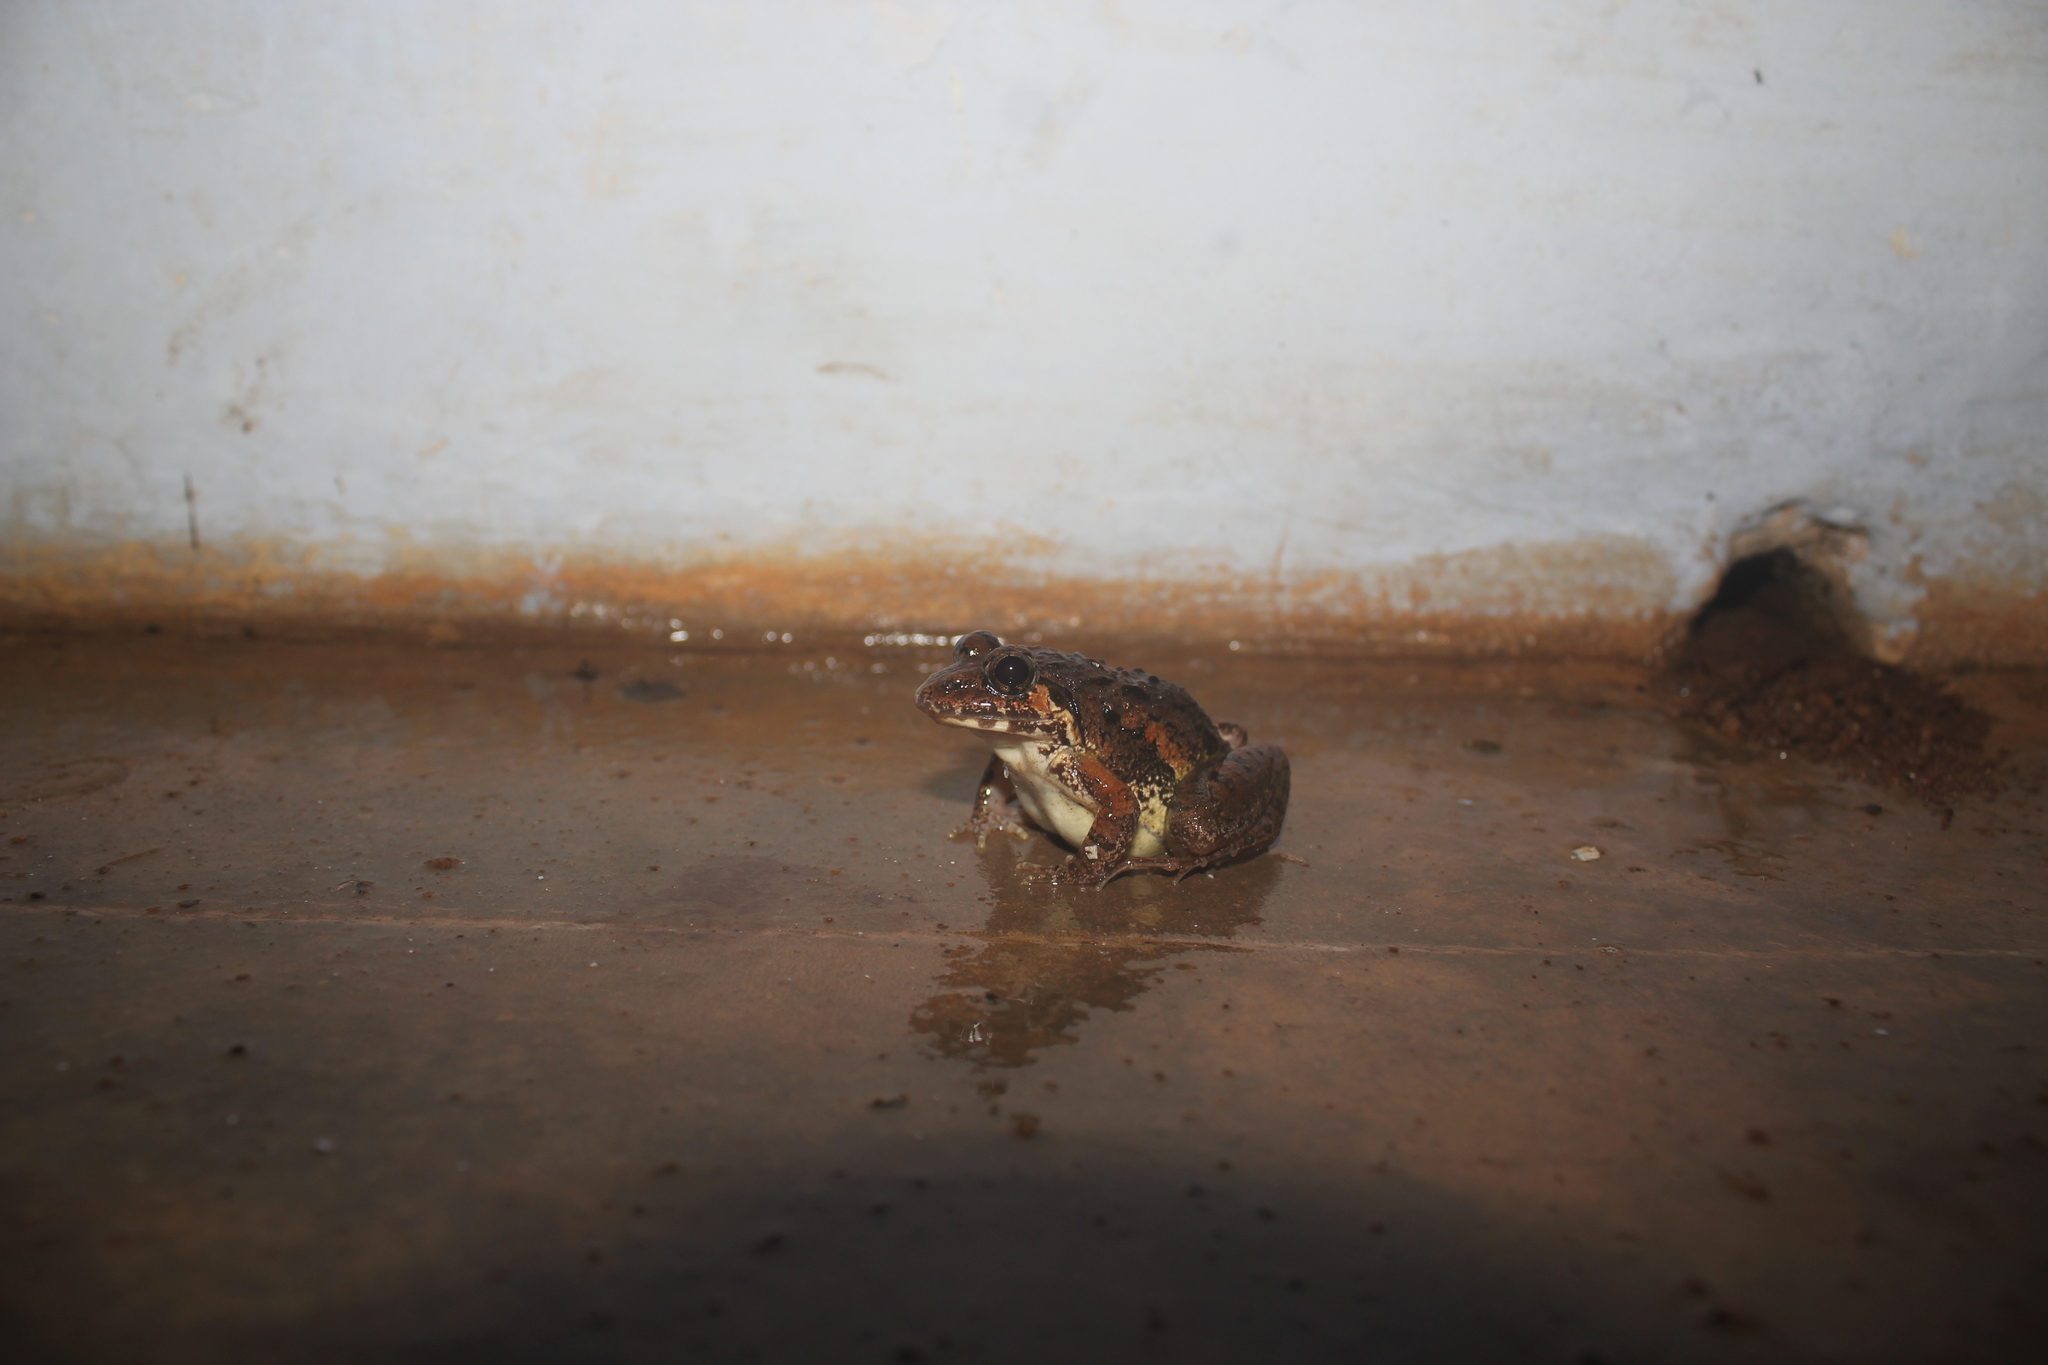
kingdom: Animalia
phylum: Chordata
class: Amphibia
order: Anura
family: Dicroglossidae
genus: Minervarya
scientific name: Minervarya mysorensis
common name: Mysore frog
